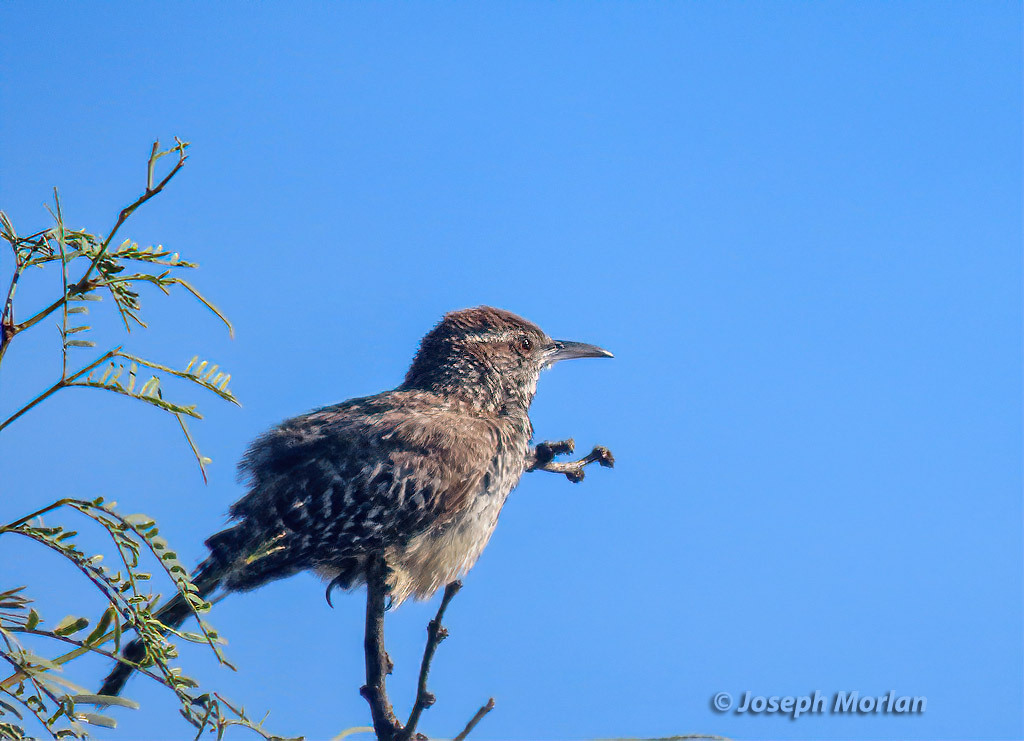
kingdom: Animalia
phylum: Chordata
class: Aves
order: Passeriformes
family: Troglodytidae
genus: Campylorhynchus
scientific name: Campylorhynchus brunneicapillus
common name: Cactus wren
